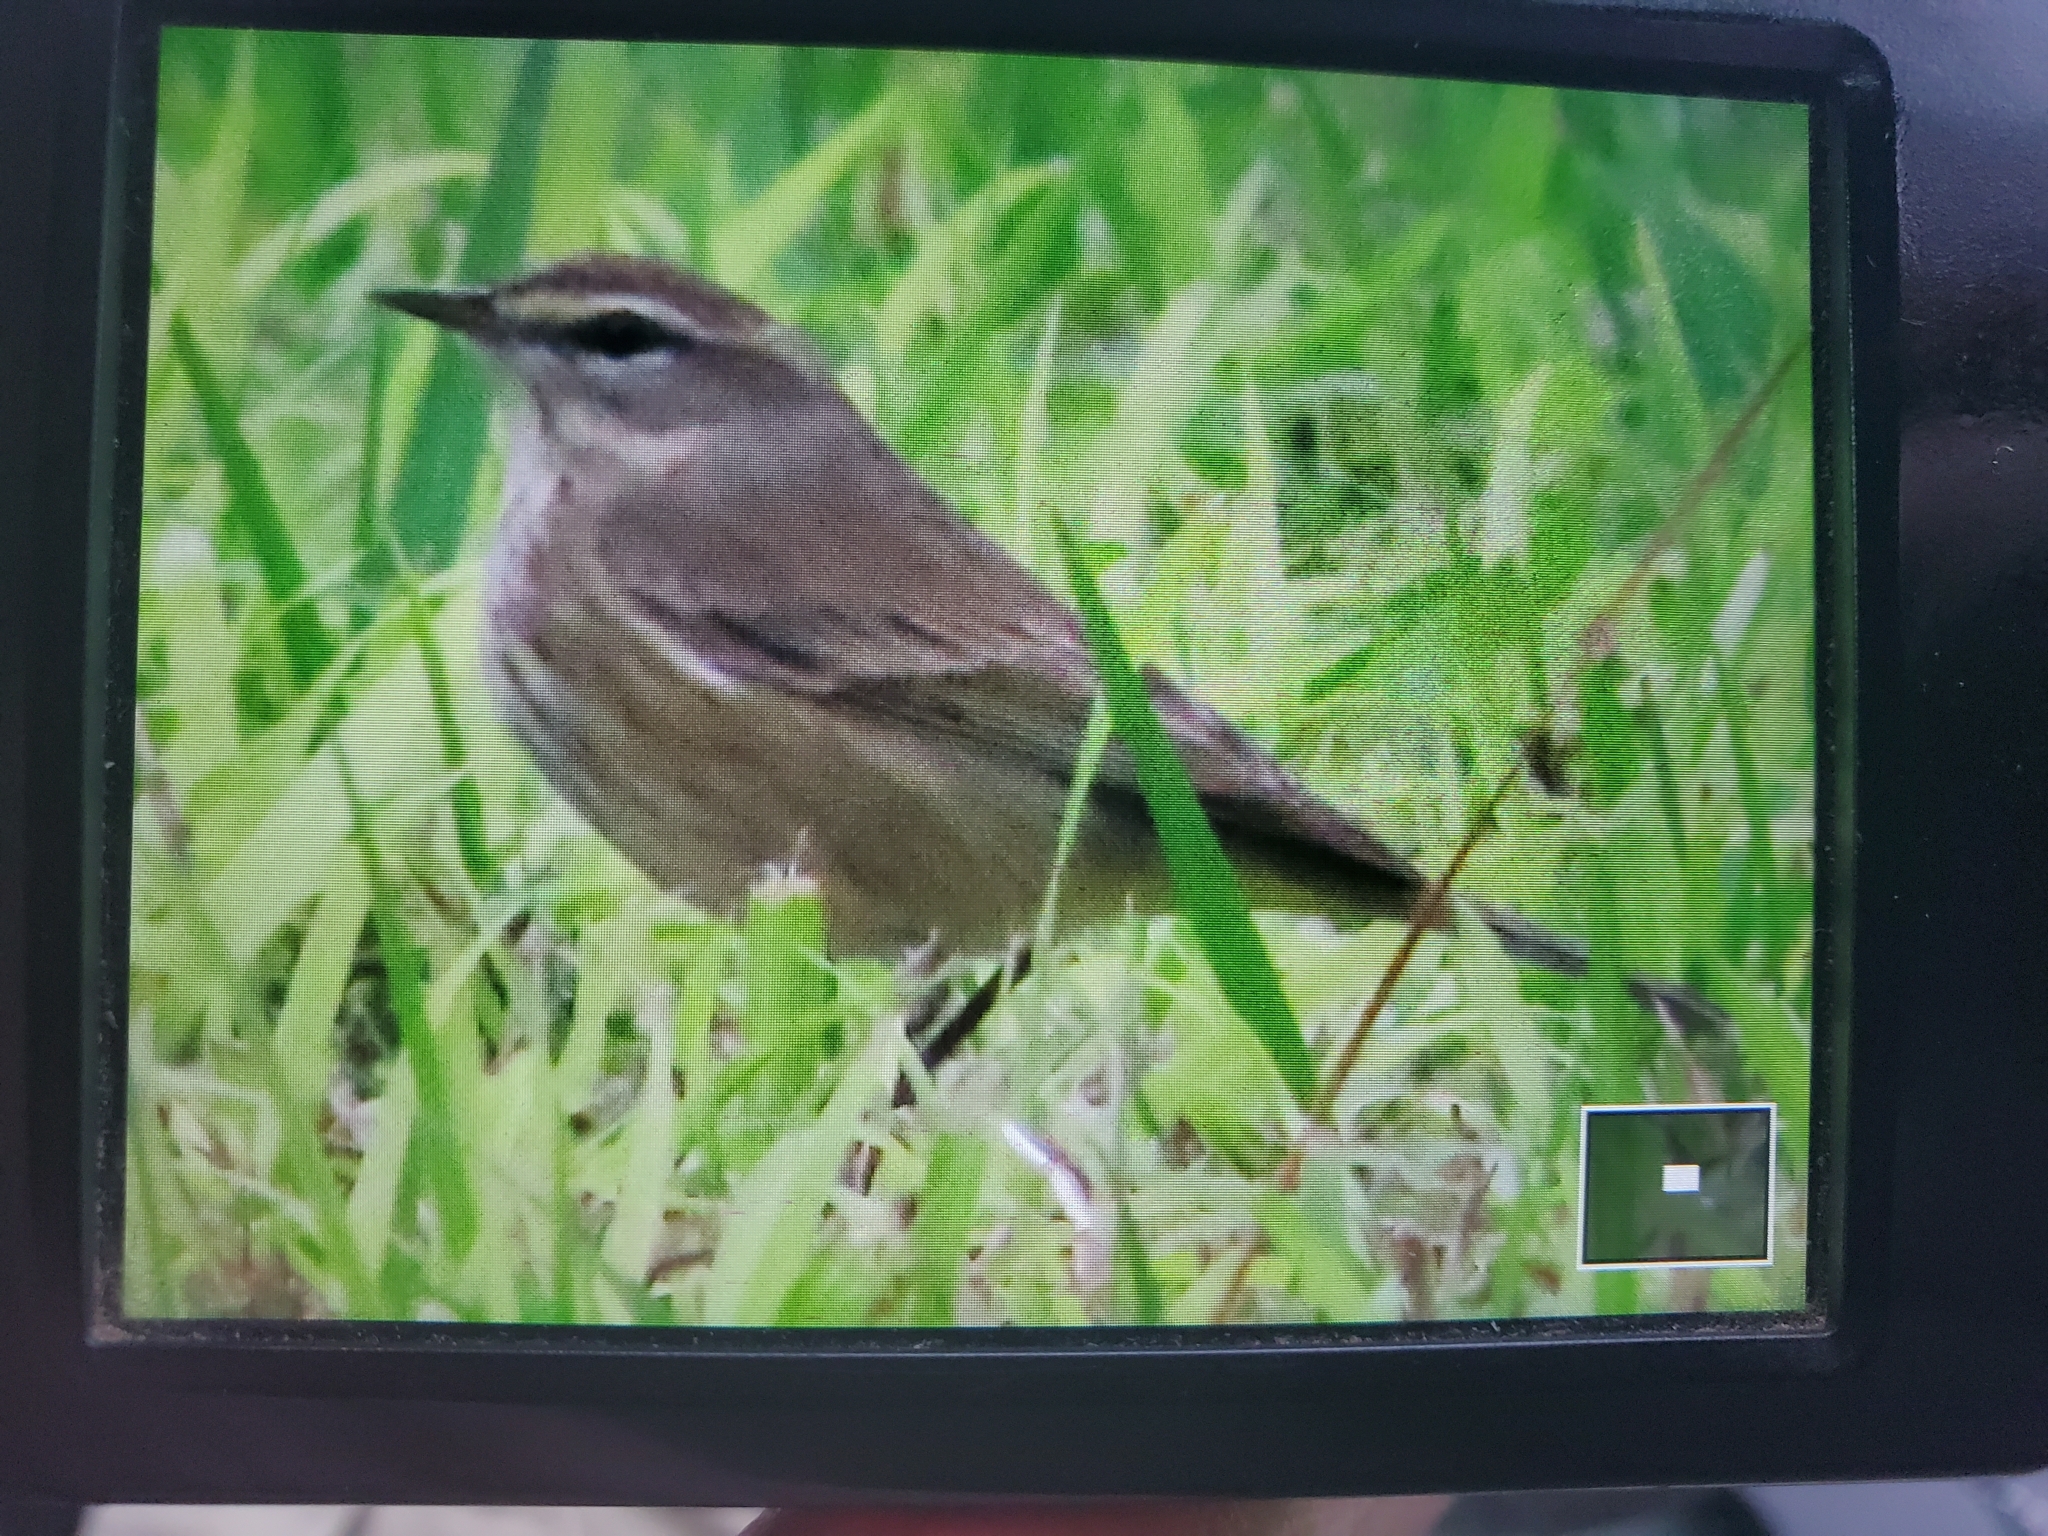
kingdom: Animalia
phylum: Chordata
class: Aves
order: Passeriformes
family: Parulidae
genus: Setophaga
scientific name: Setophaga palmarum
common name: Palm warbler
